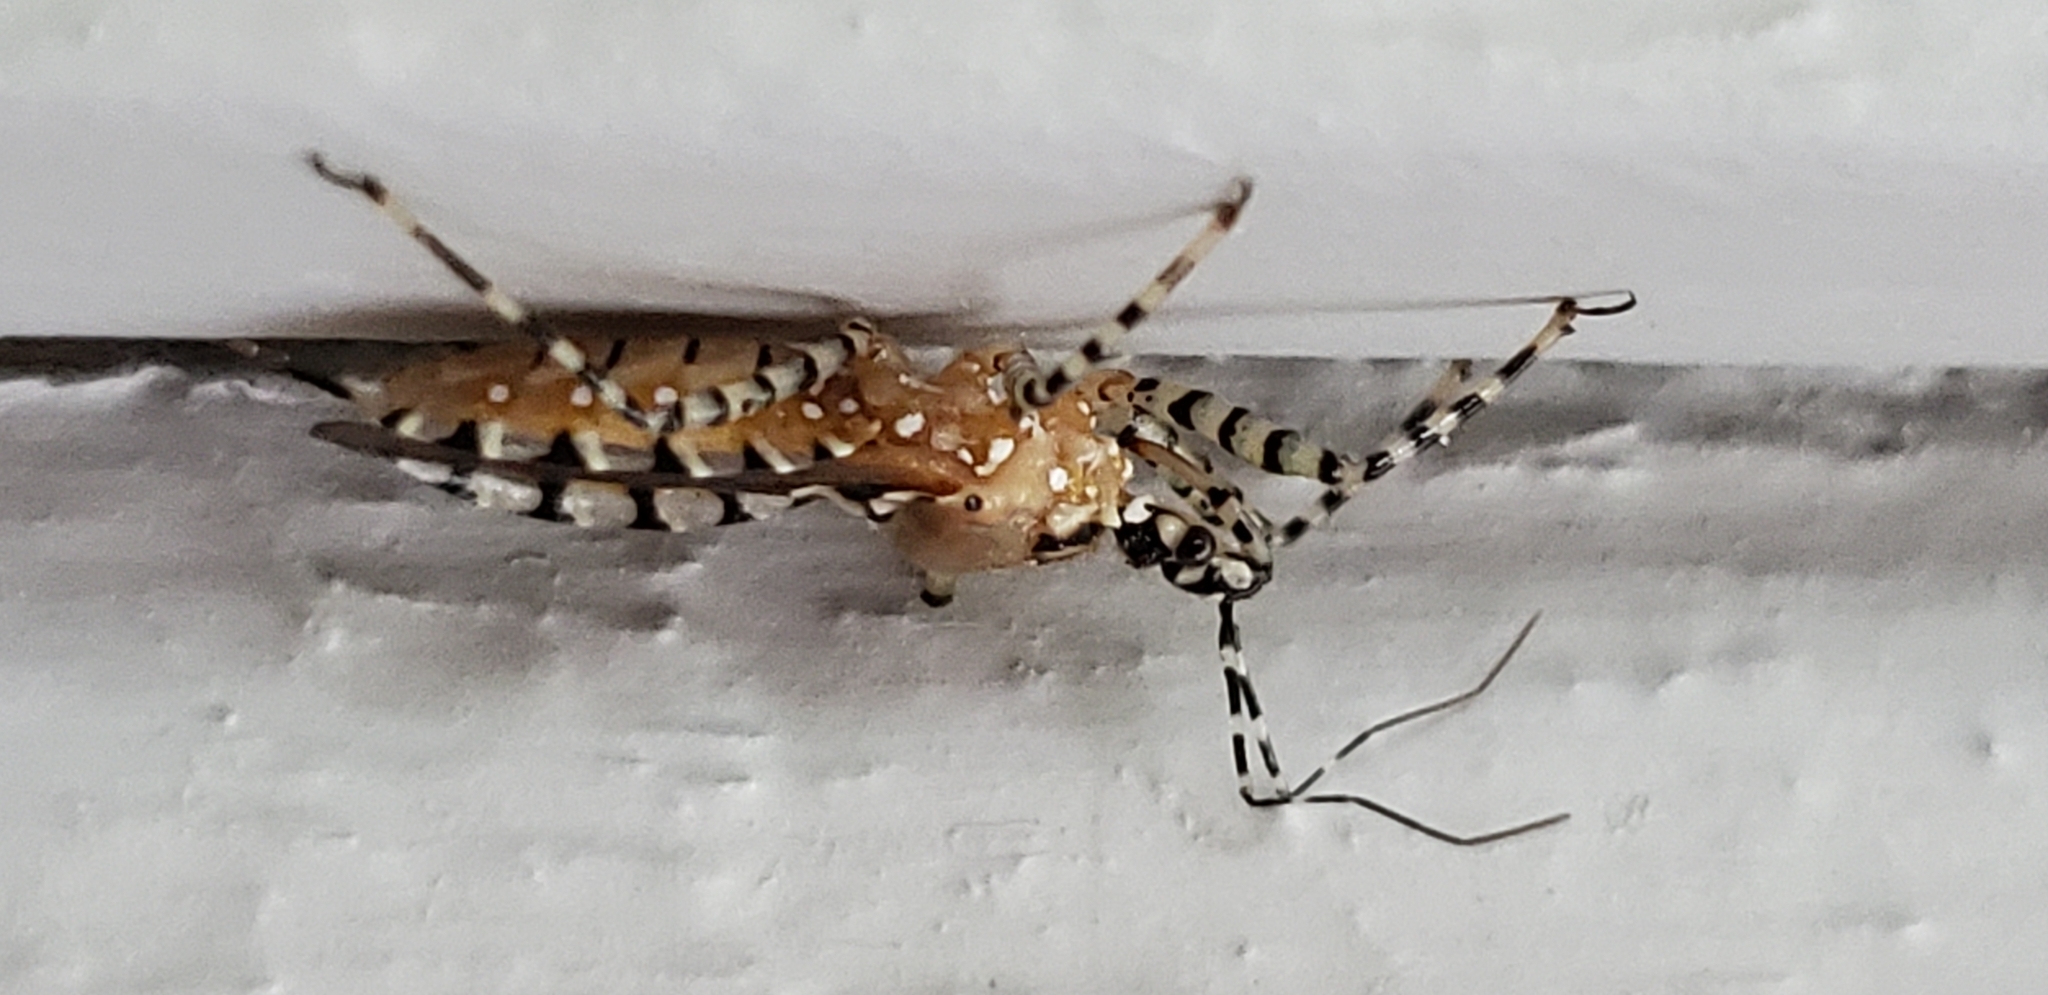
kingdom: Animalia
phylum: Arthropoda
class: Insecta
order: Hemiptera
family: Reduviidae
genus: Pselliopus
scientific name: Pselliopus cinctus
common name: Ringed assassin bug
